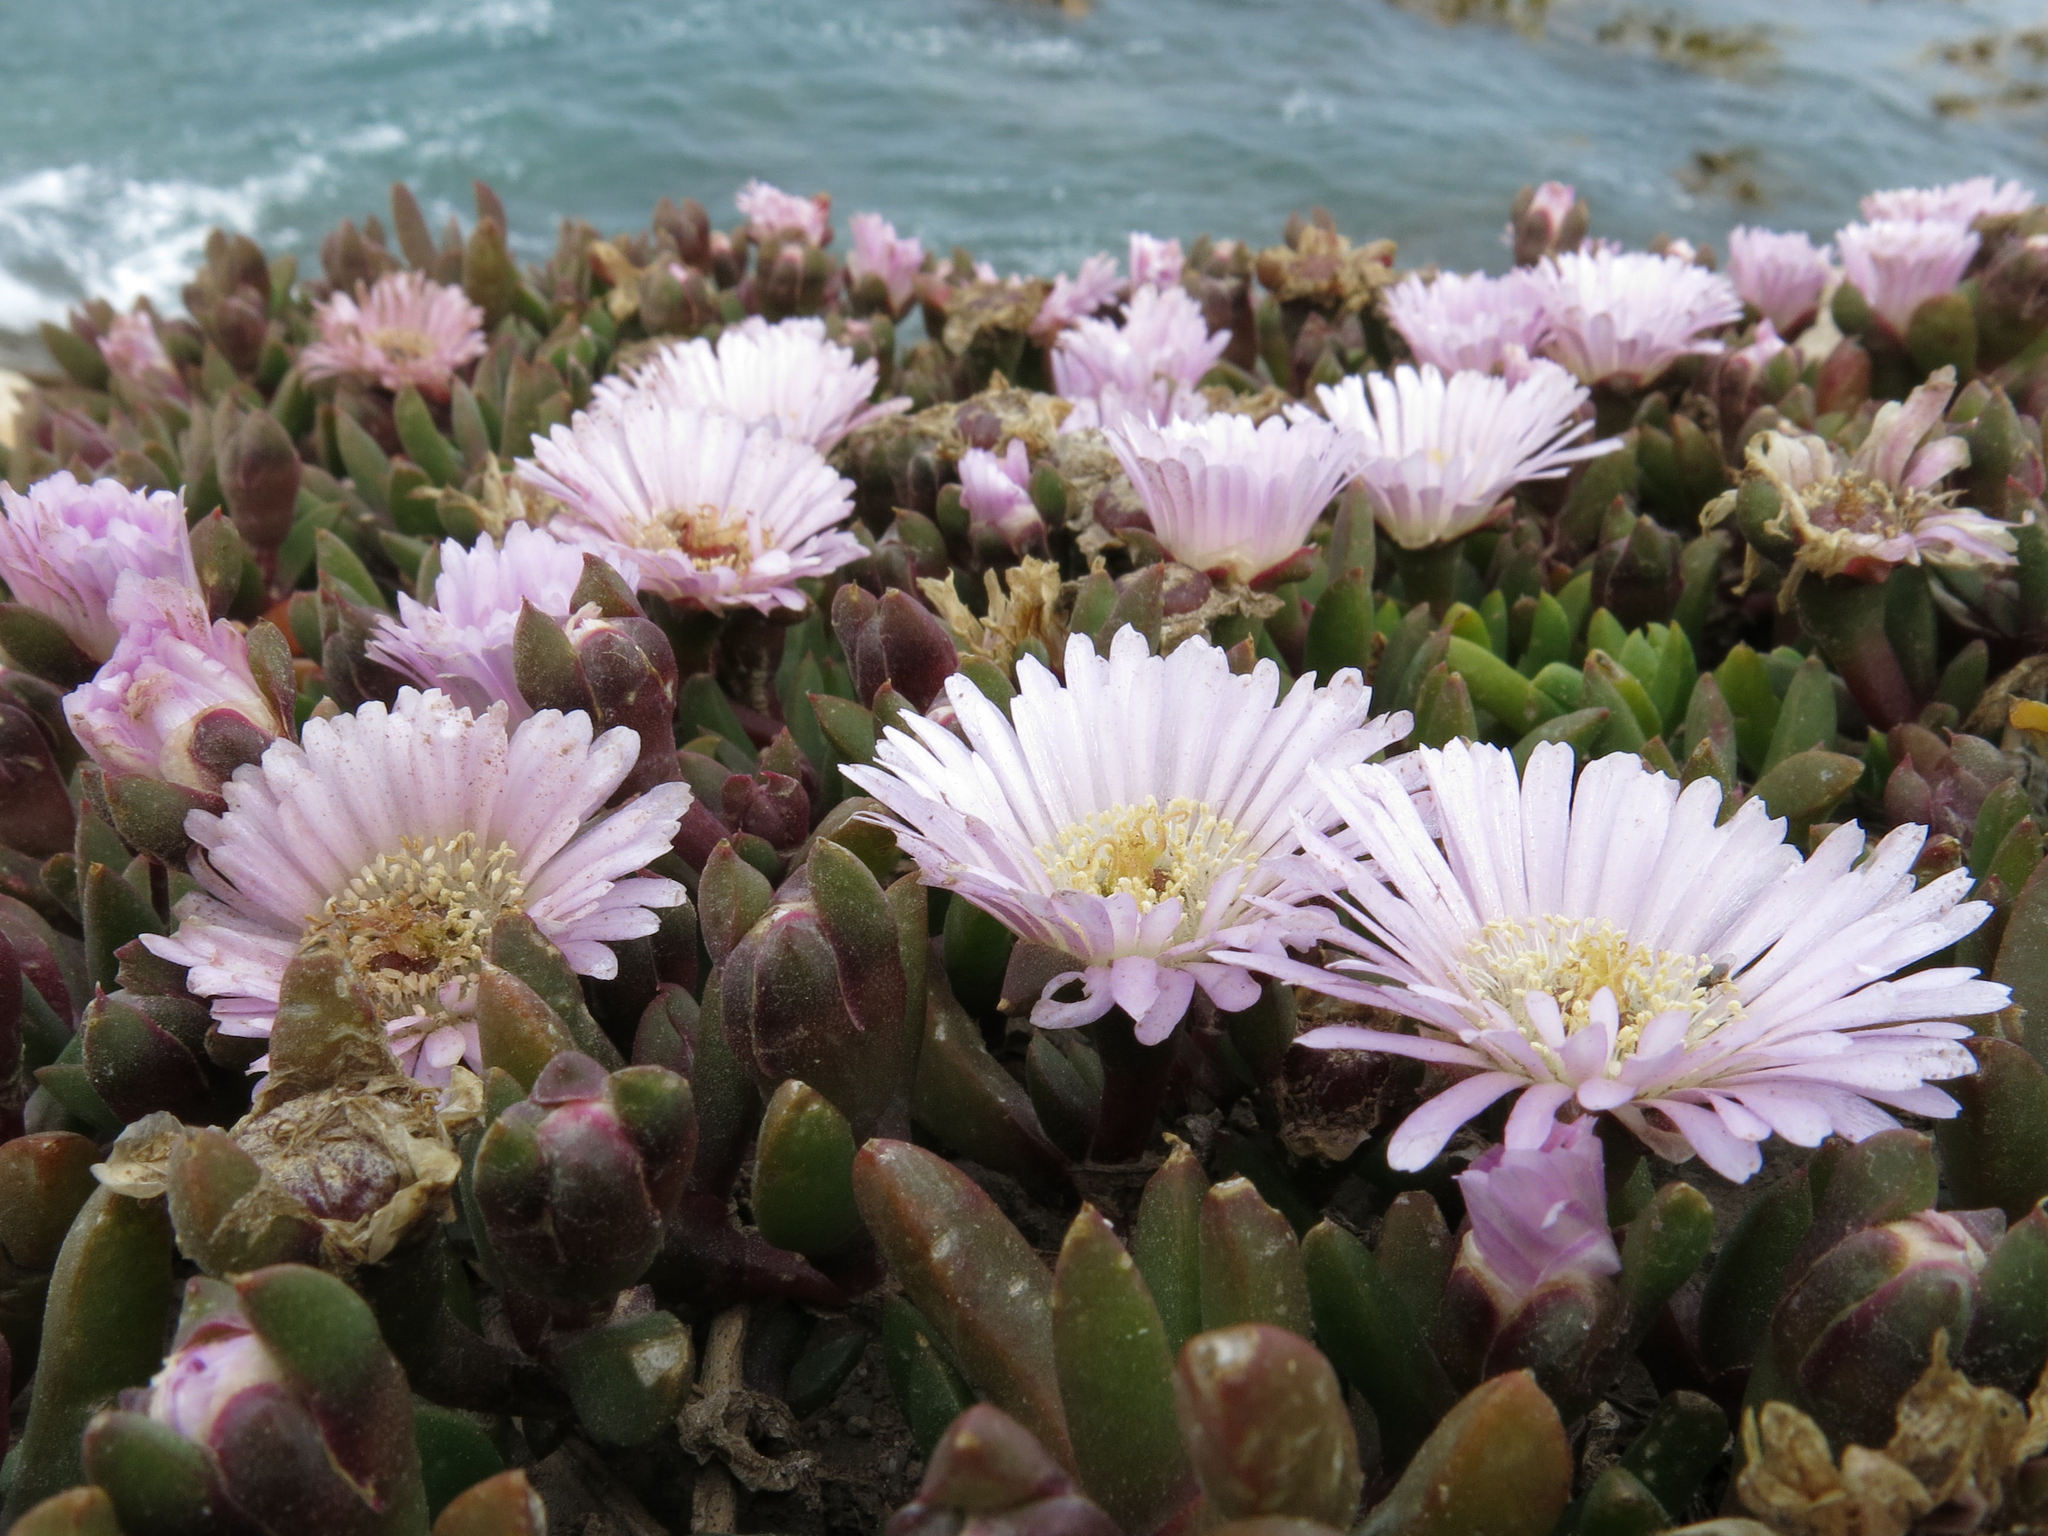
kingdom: Plantae
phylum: Tracheophyta
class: Magnoliopsida
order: Caryophyllales
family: Aizoaceae
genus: Disphyma
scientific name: Disphyma australe
